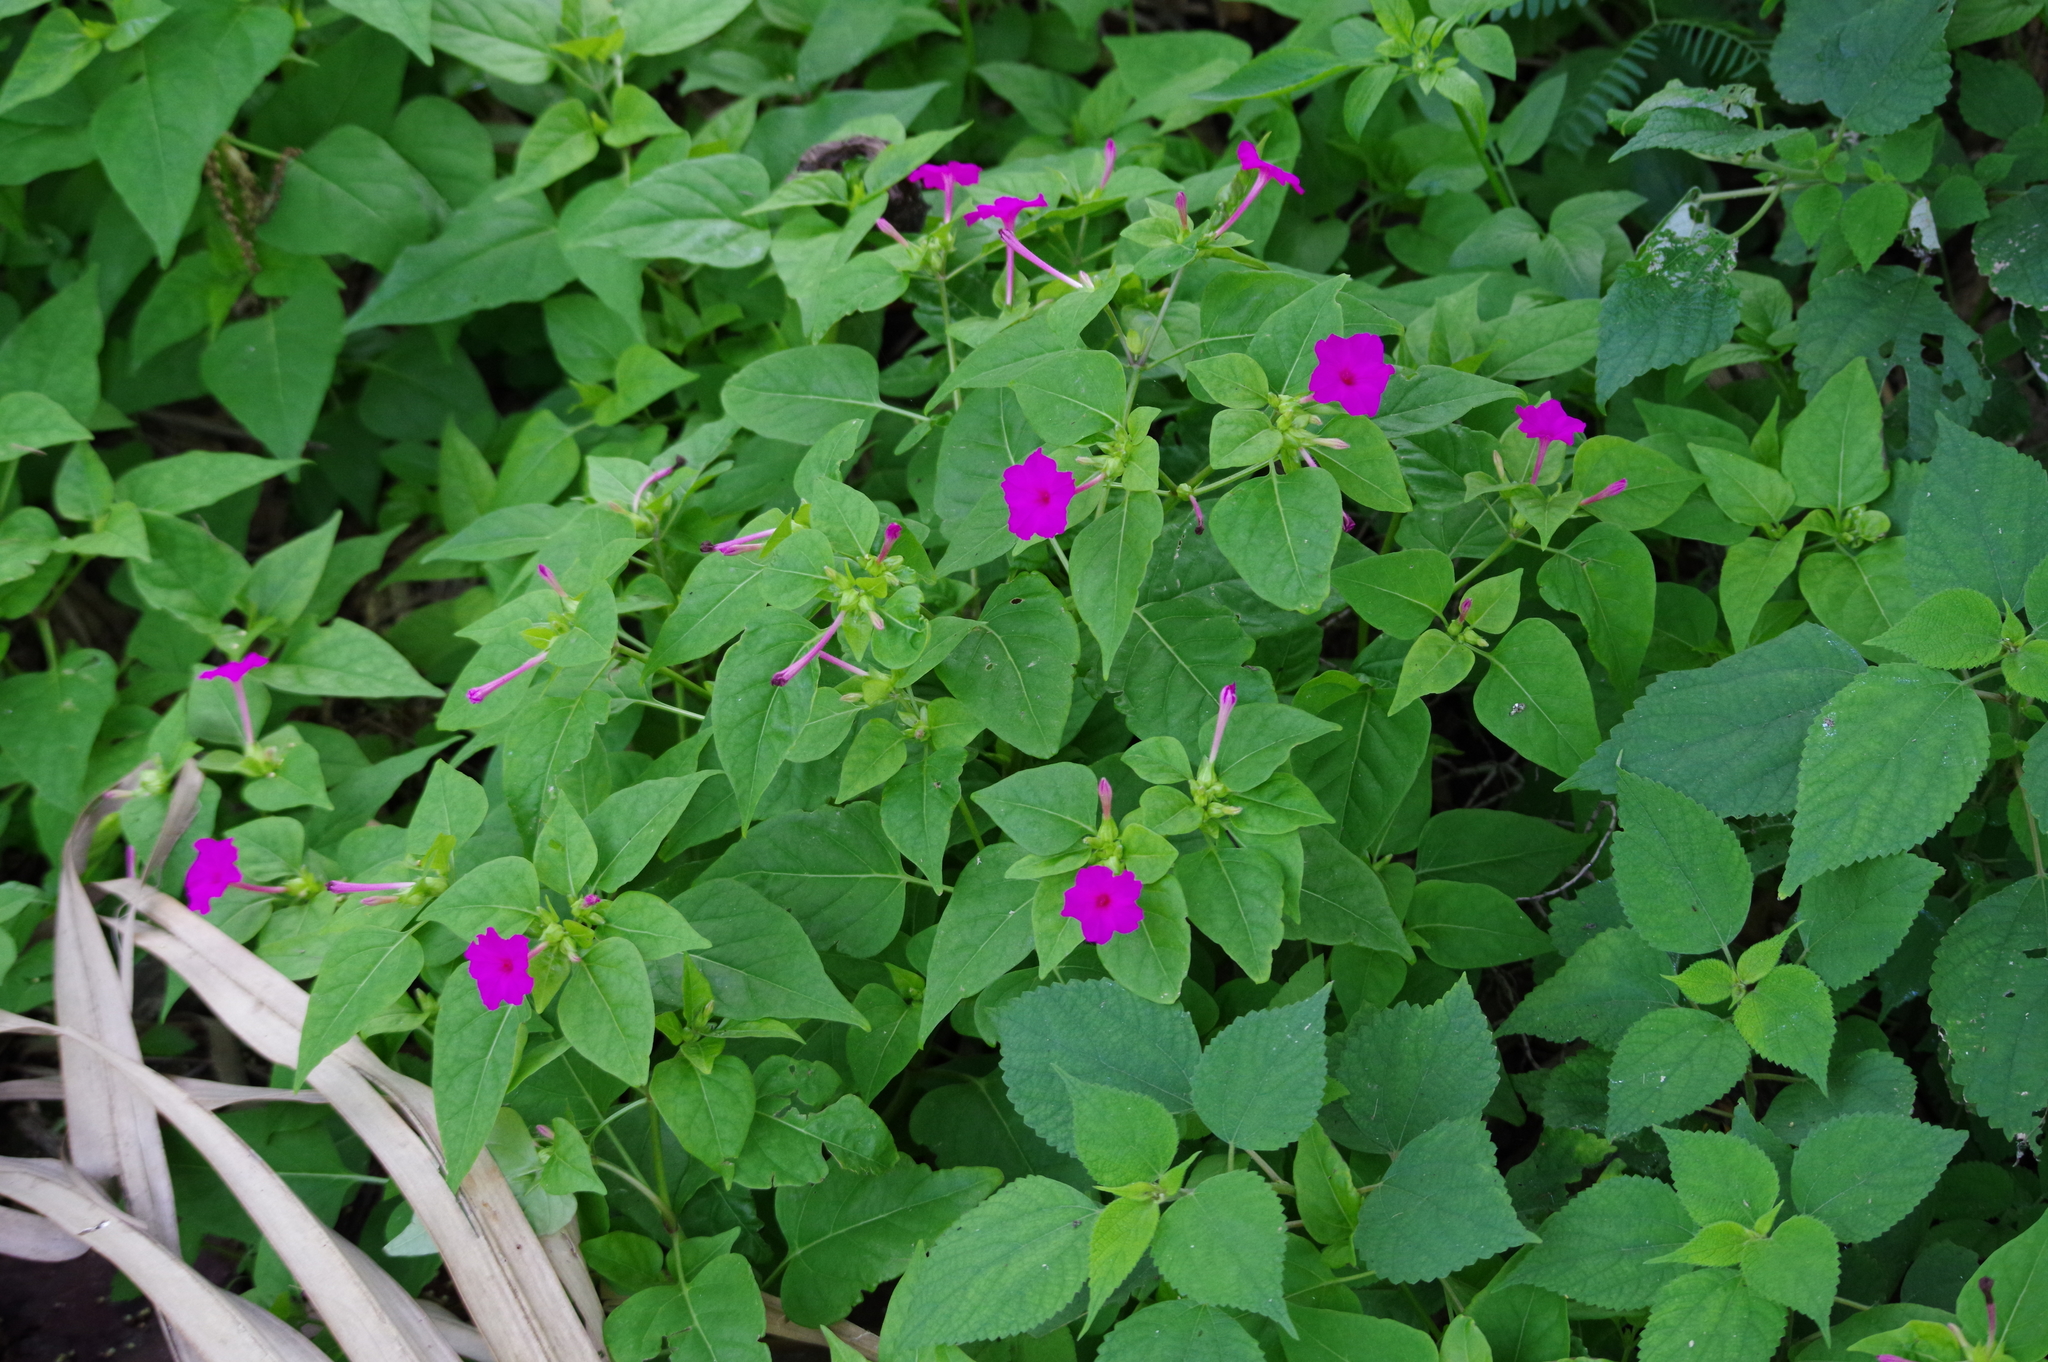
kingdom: Plantae
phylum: Tracheophyta
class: Magnoliopsida
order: Caryophyllales
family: Nyctaginaceae
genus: Mirabilis
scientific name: Mirabilis jalapa
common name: Marvel-of-peru
